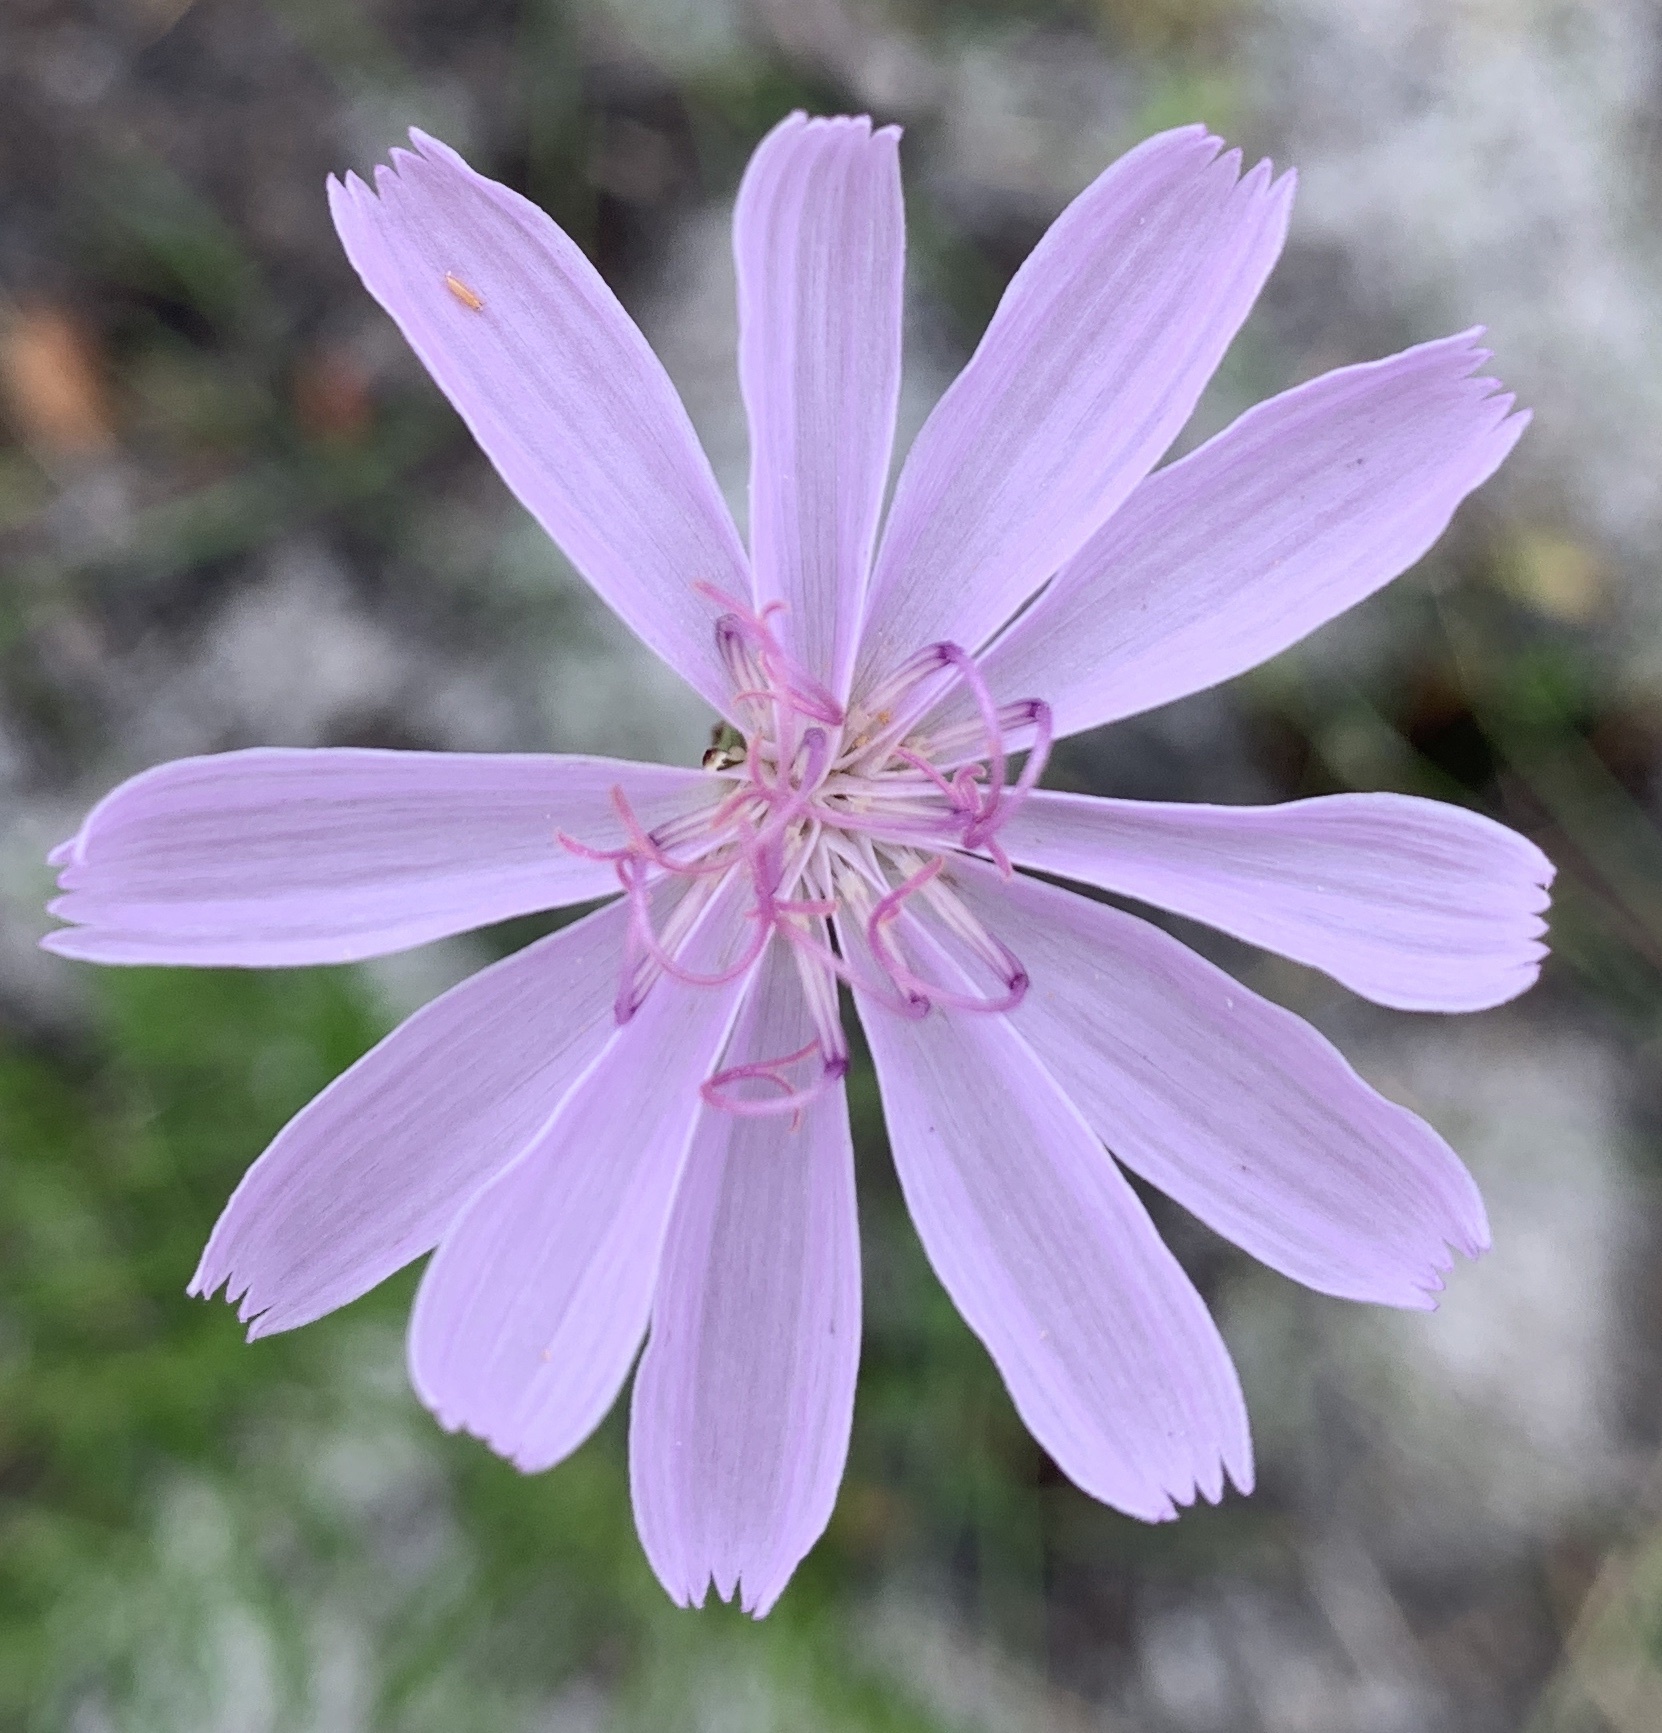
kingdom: Plantae
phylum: Tracheophyta
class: Magnoliopsida
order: Asterales
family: Asteraceae
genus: Lygodesmia
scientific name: Lygodesmia aphylla
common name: Rose-rush
